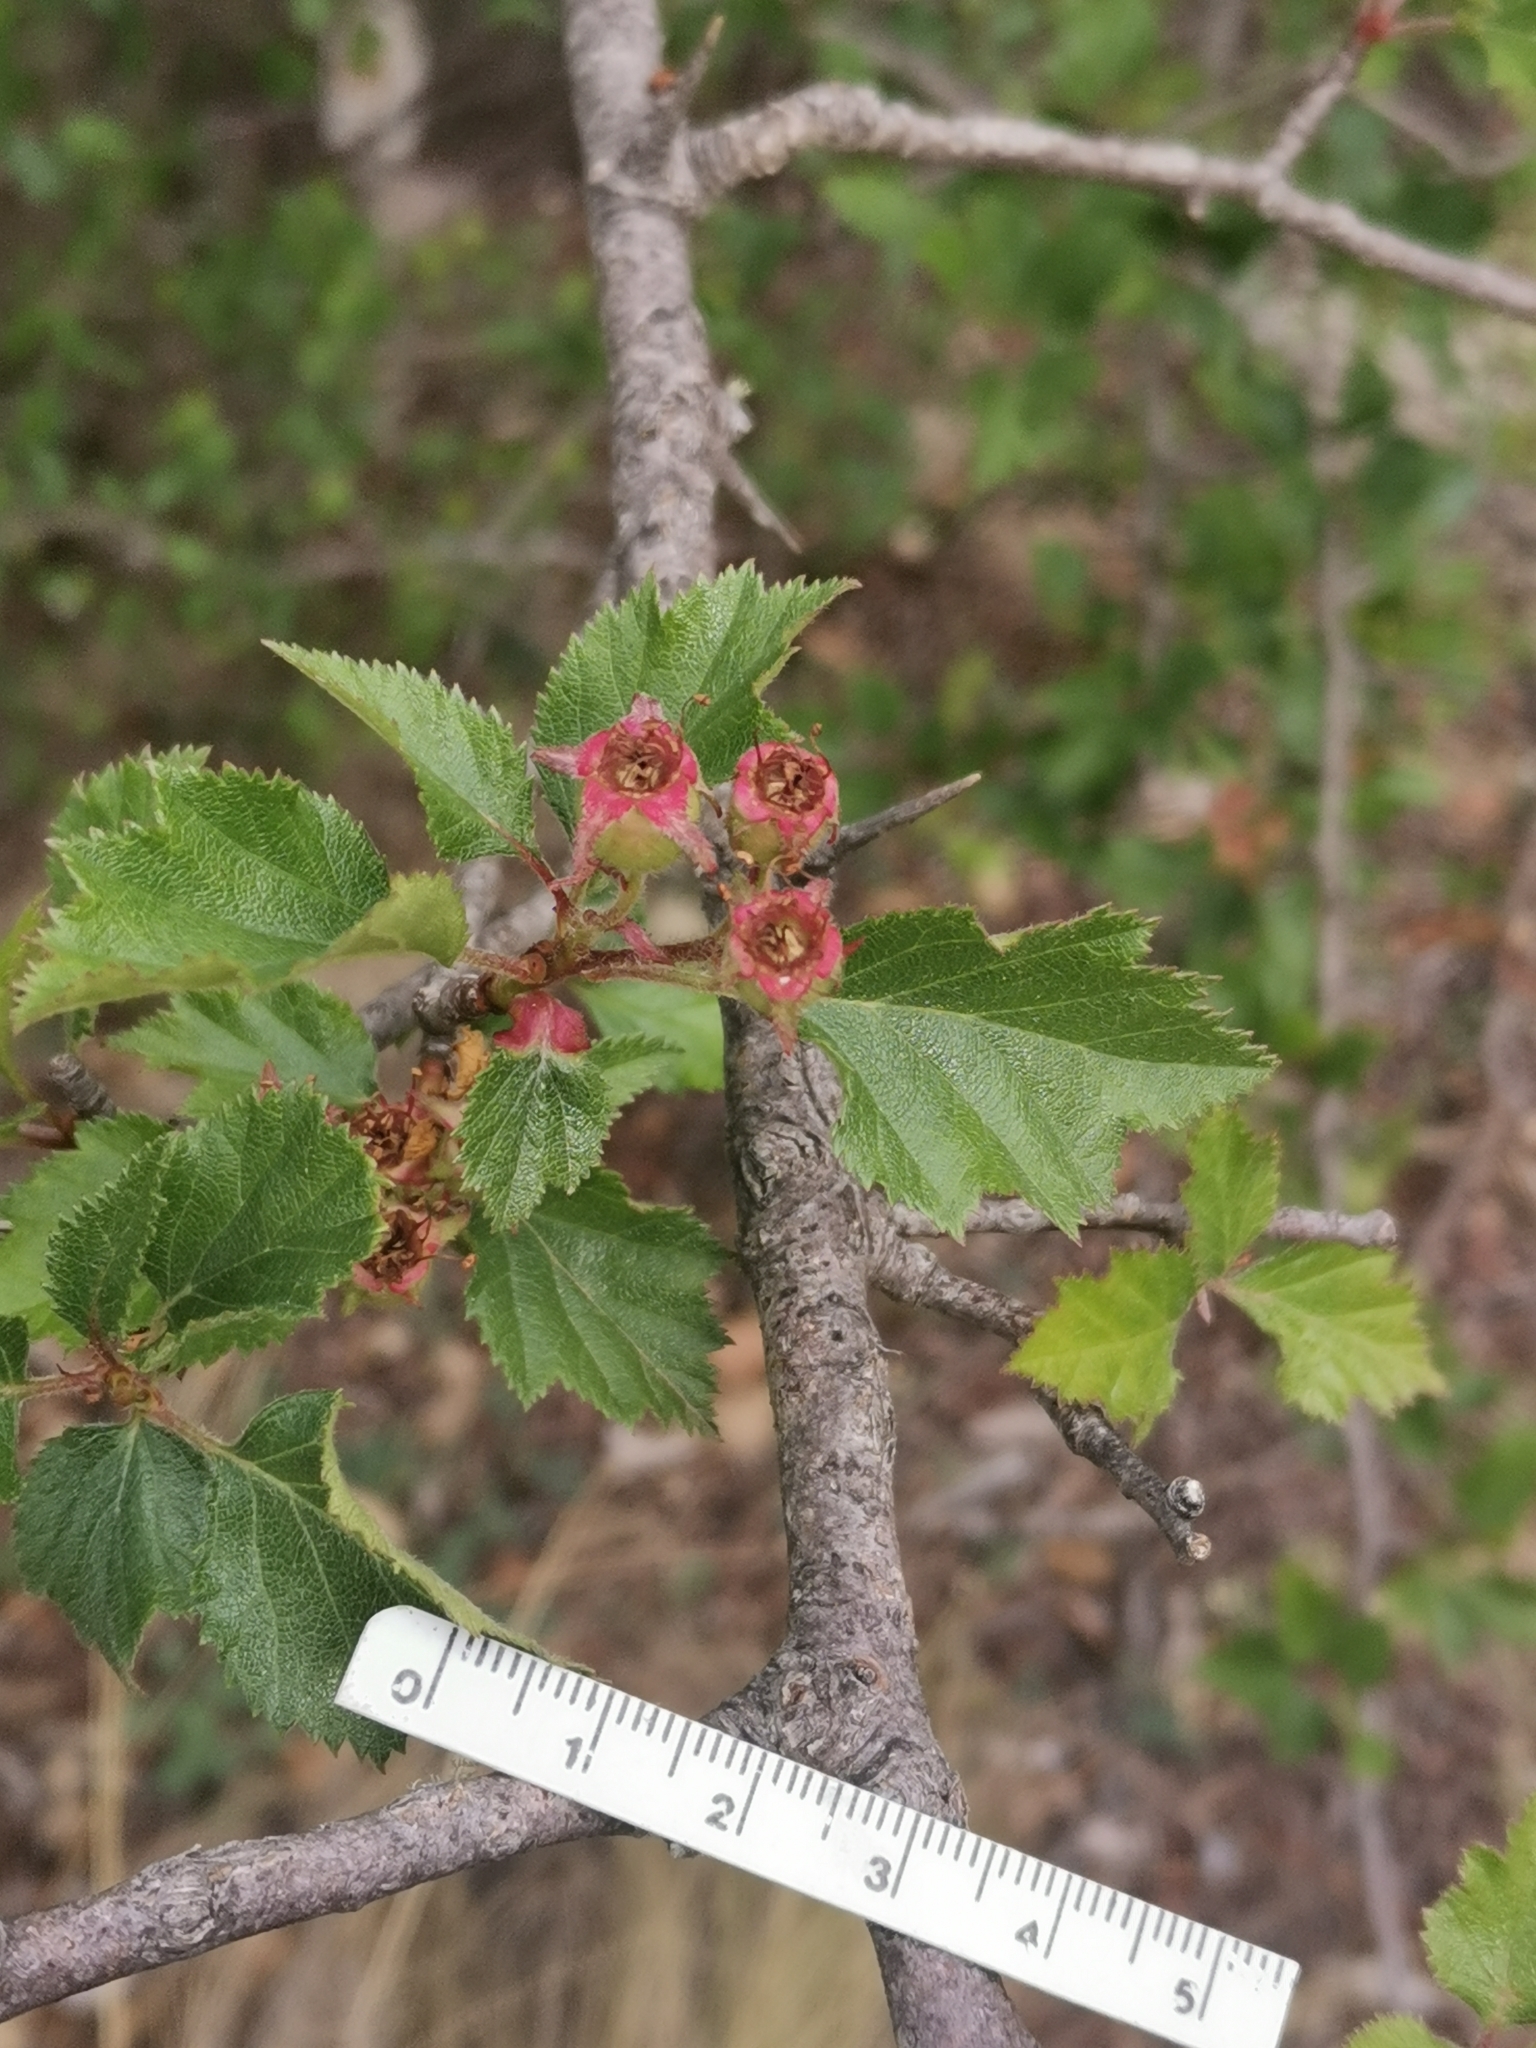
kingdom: Plantae
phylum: Tracheophyta
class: Magnoliopsida
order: Rosales
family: Rosaceae
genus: Crataegus
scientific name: Crataegus greggiana
